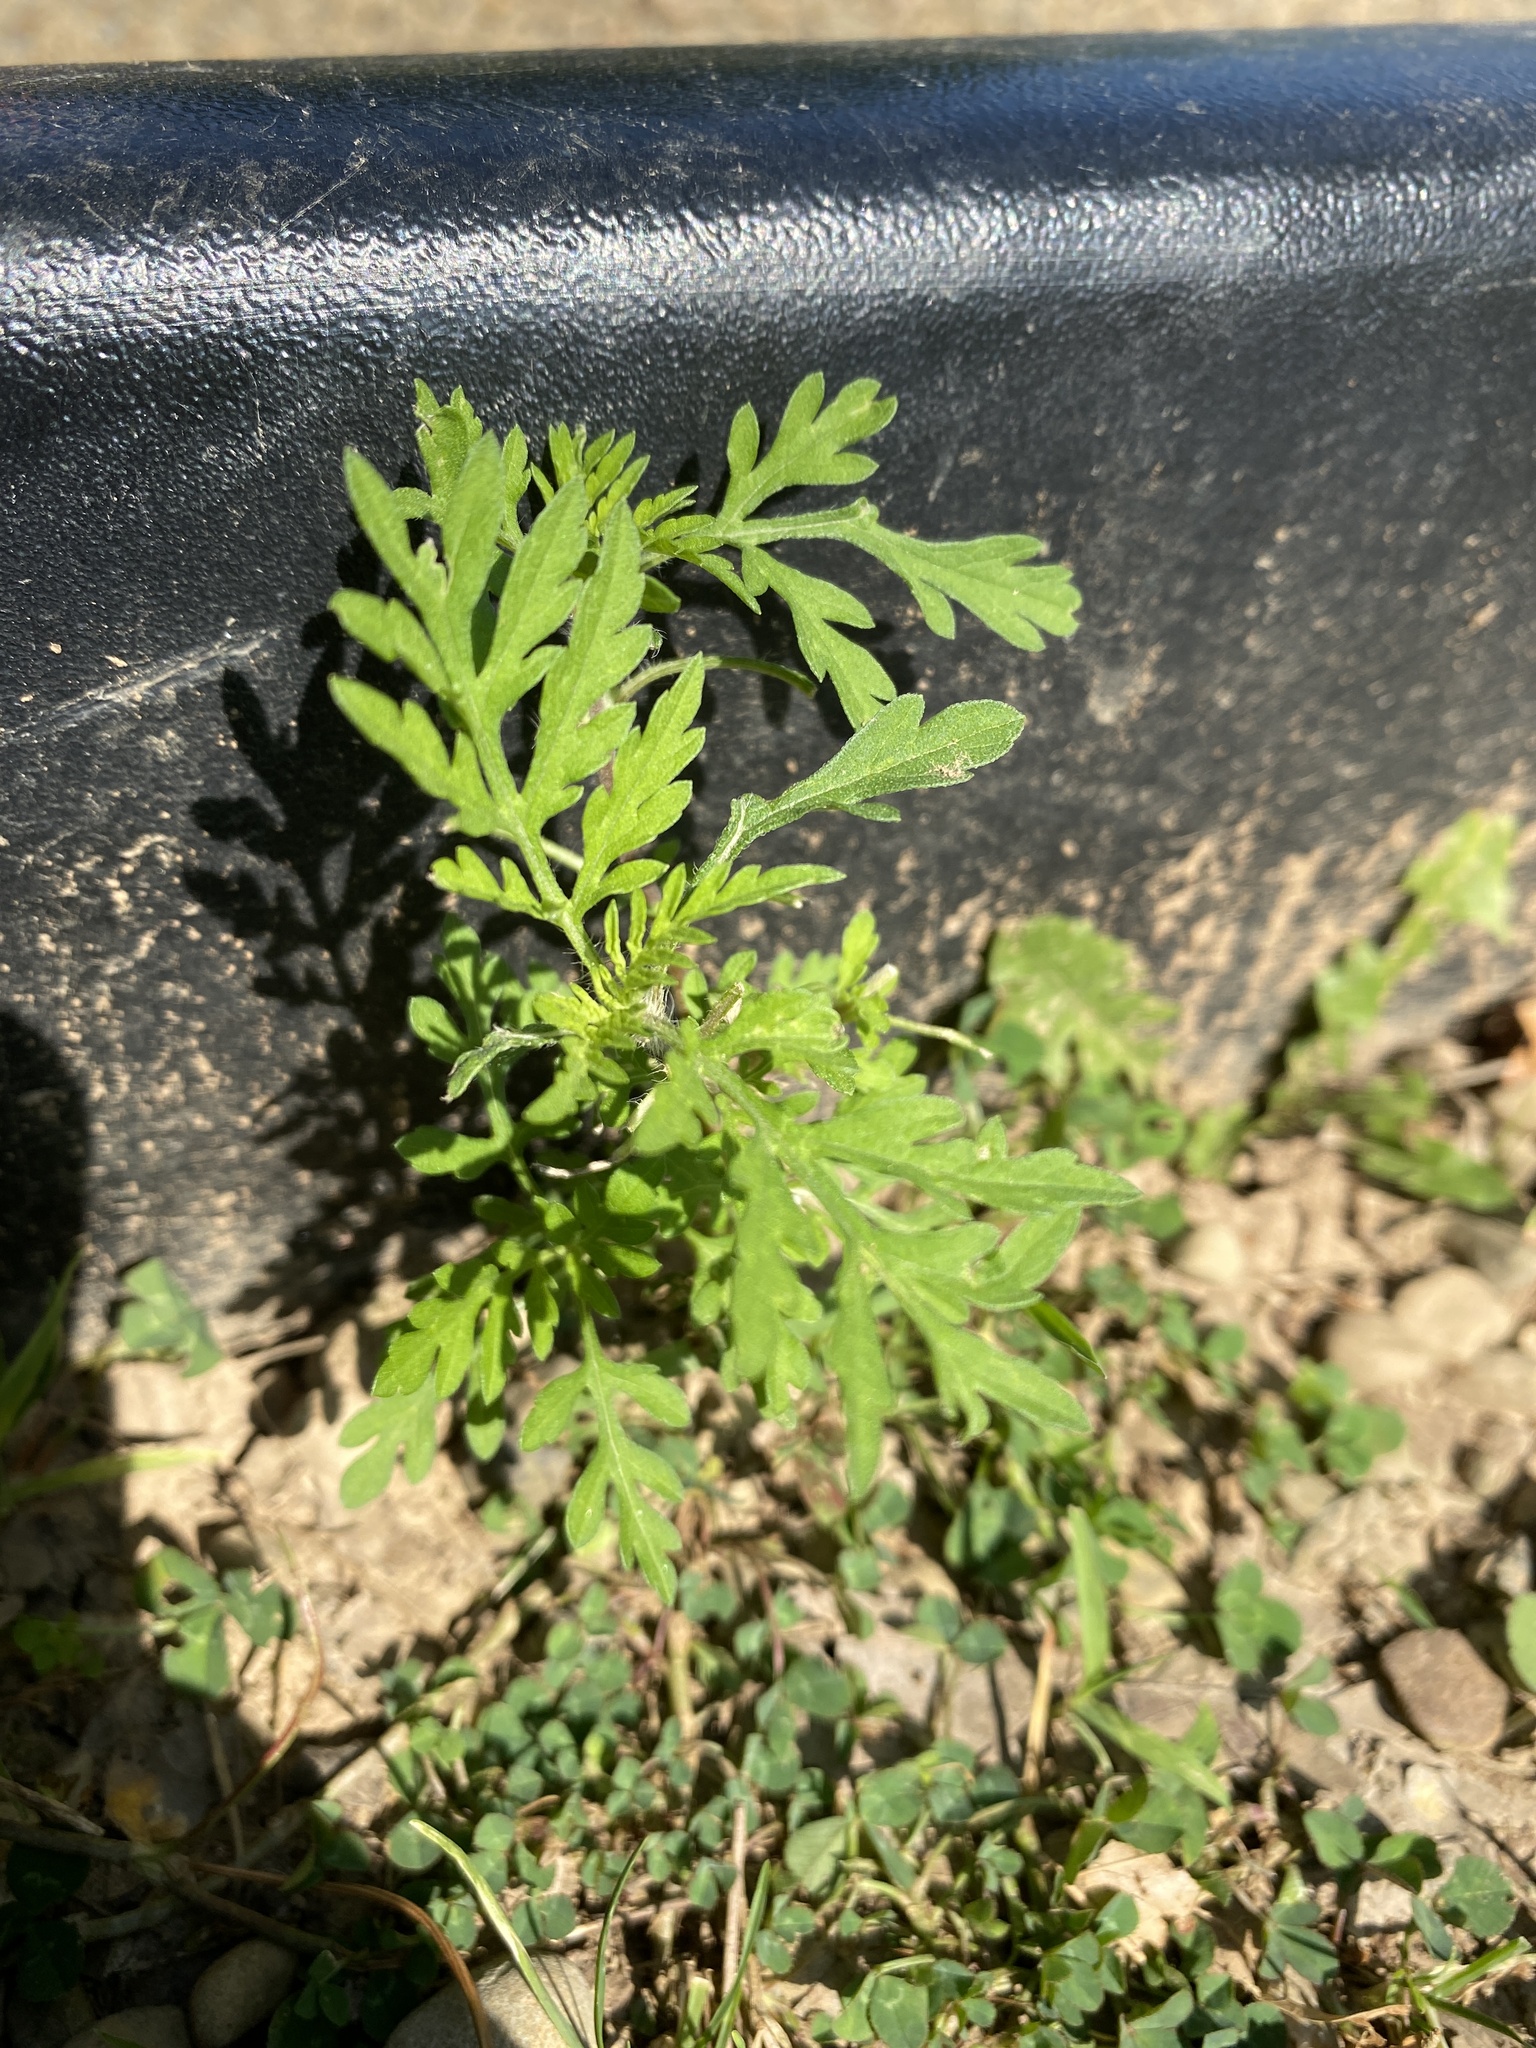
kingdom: Plantae
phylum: Tracheophyta
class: Magnoliopsida
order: Asterales
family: Asteraceae
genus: Ambrosia
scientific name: Ambrosia artemisiifolia
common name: Annual ragweed
